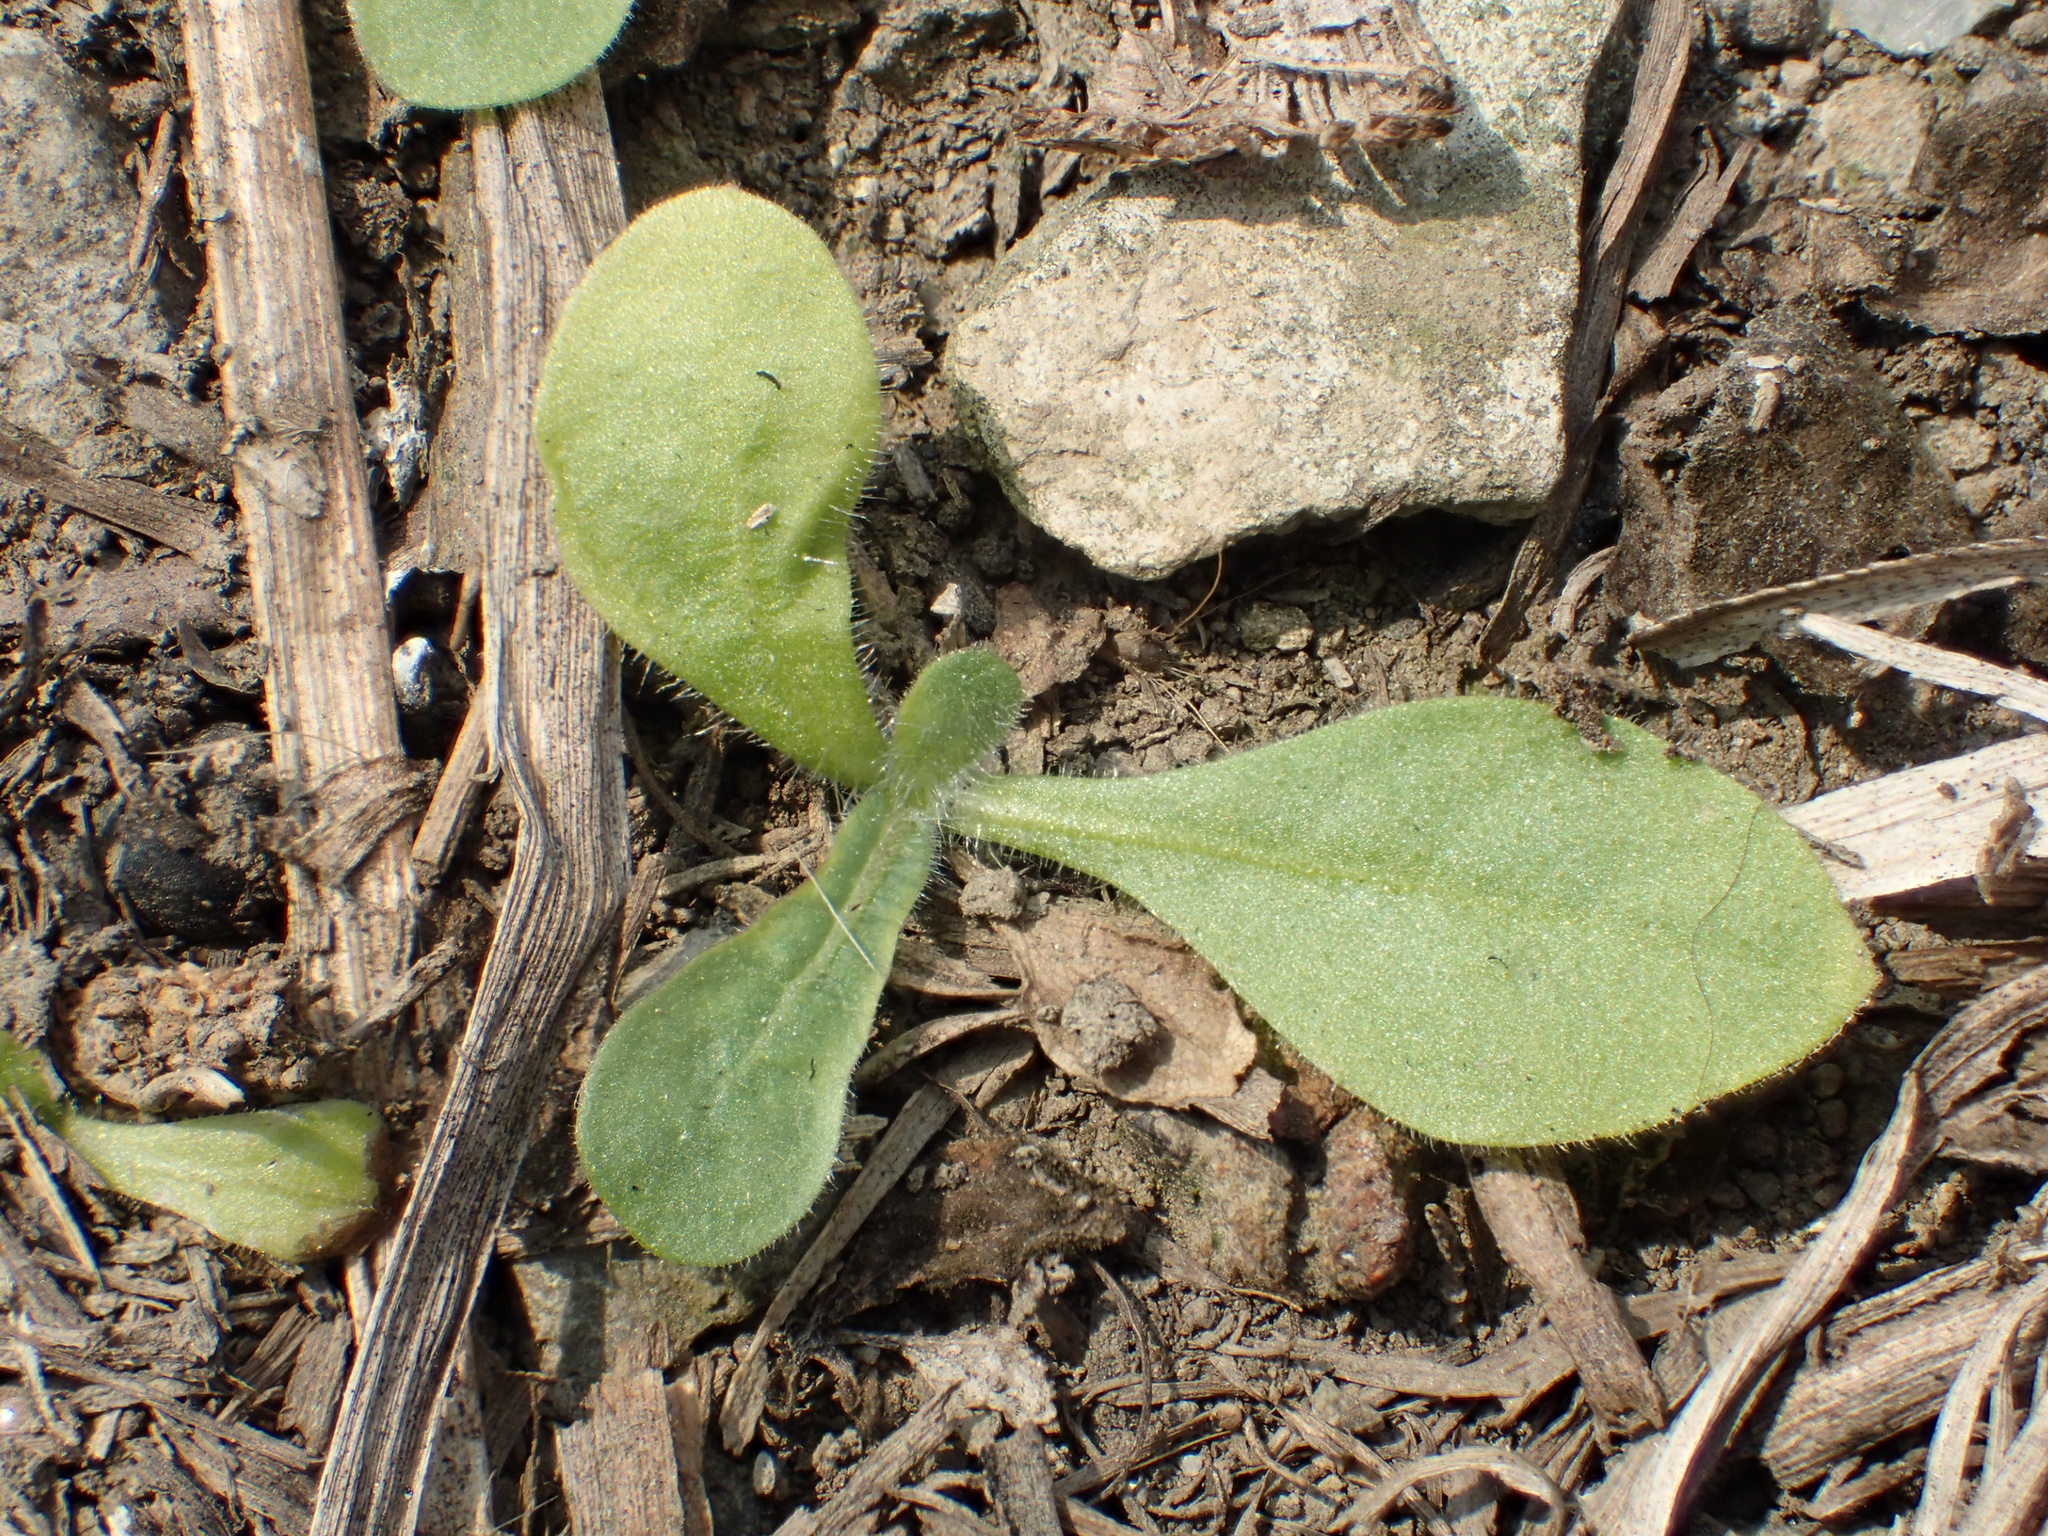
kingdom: Plantae
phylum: Tracheophyta
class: Magnoliopsida
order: Solanales
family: Solanaceae
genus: Nicotiana
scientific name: Nicotiana plumbaginifolia
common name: Tex-mex tobacco
